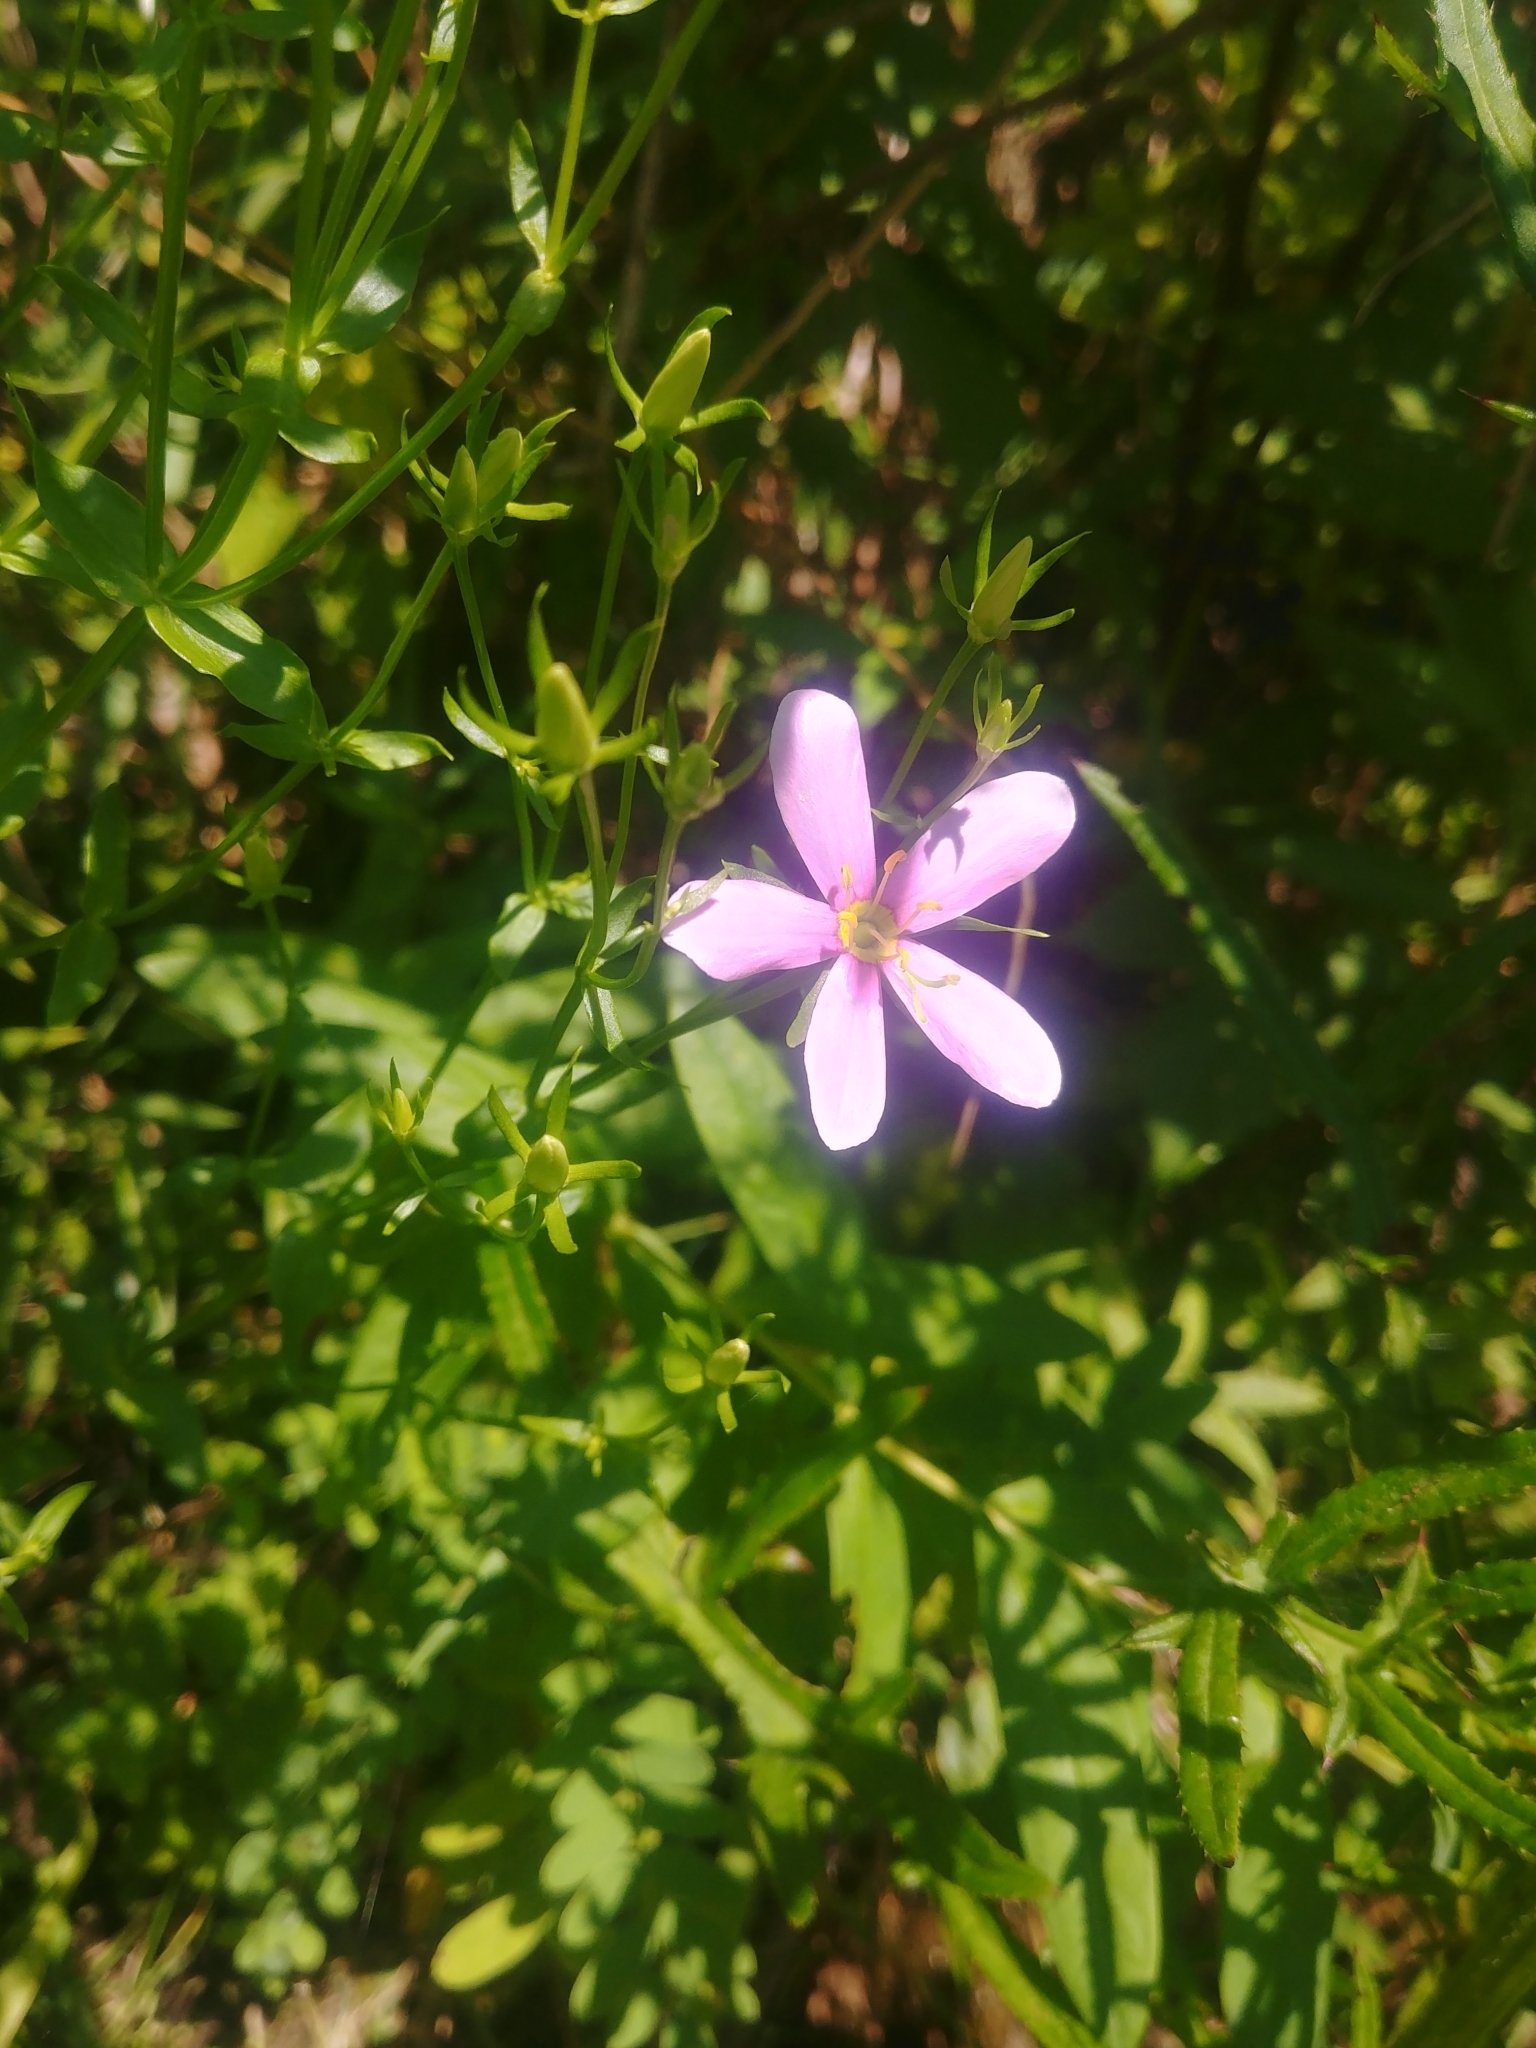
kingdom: Plantae
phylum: Tracheophyta
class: Magnoliopsida
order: Gentianales
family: Gentianaceae
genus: Sabatia
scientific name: Sabatia angularis
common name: Rose-pink
